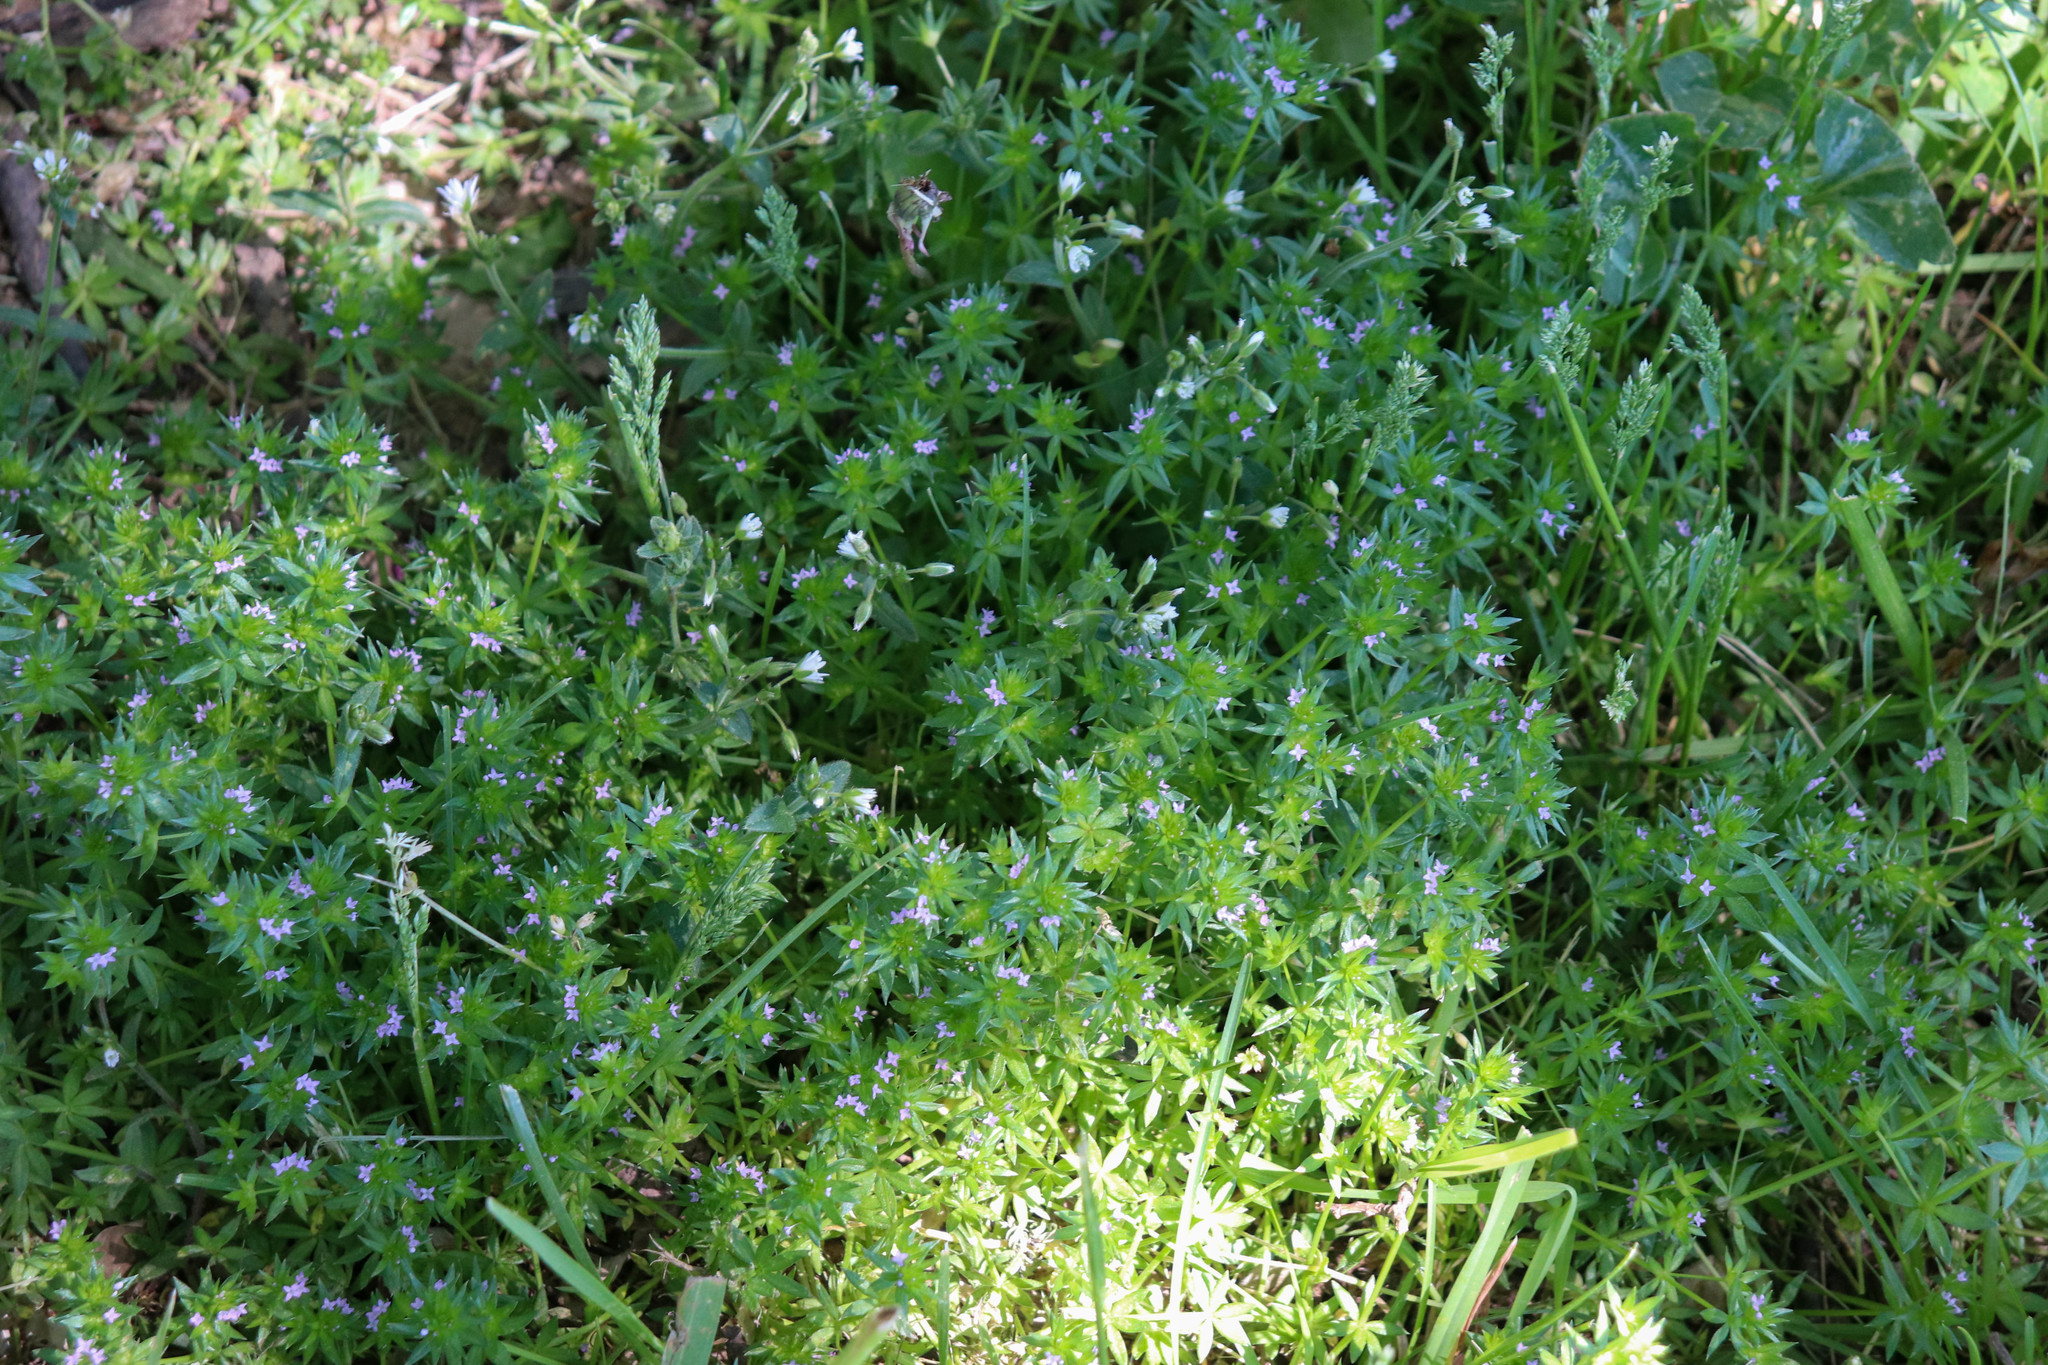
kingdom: Plantae
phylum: Tracheophyta
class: Magnoliopsida
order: Gentianales
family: Rubiaceae
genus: Sherardia
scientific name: Sherardia arvensis
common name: Field madder
